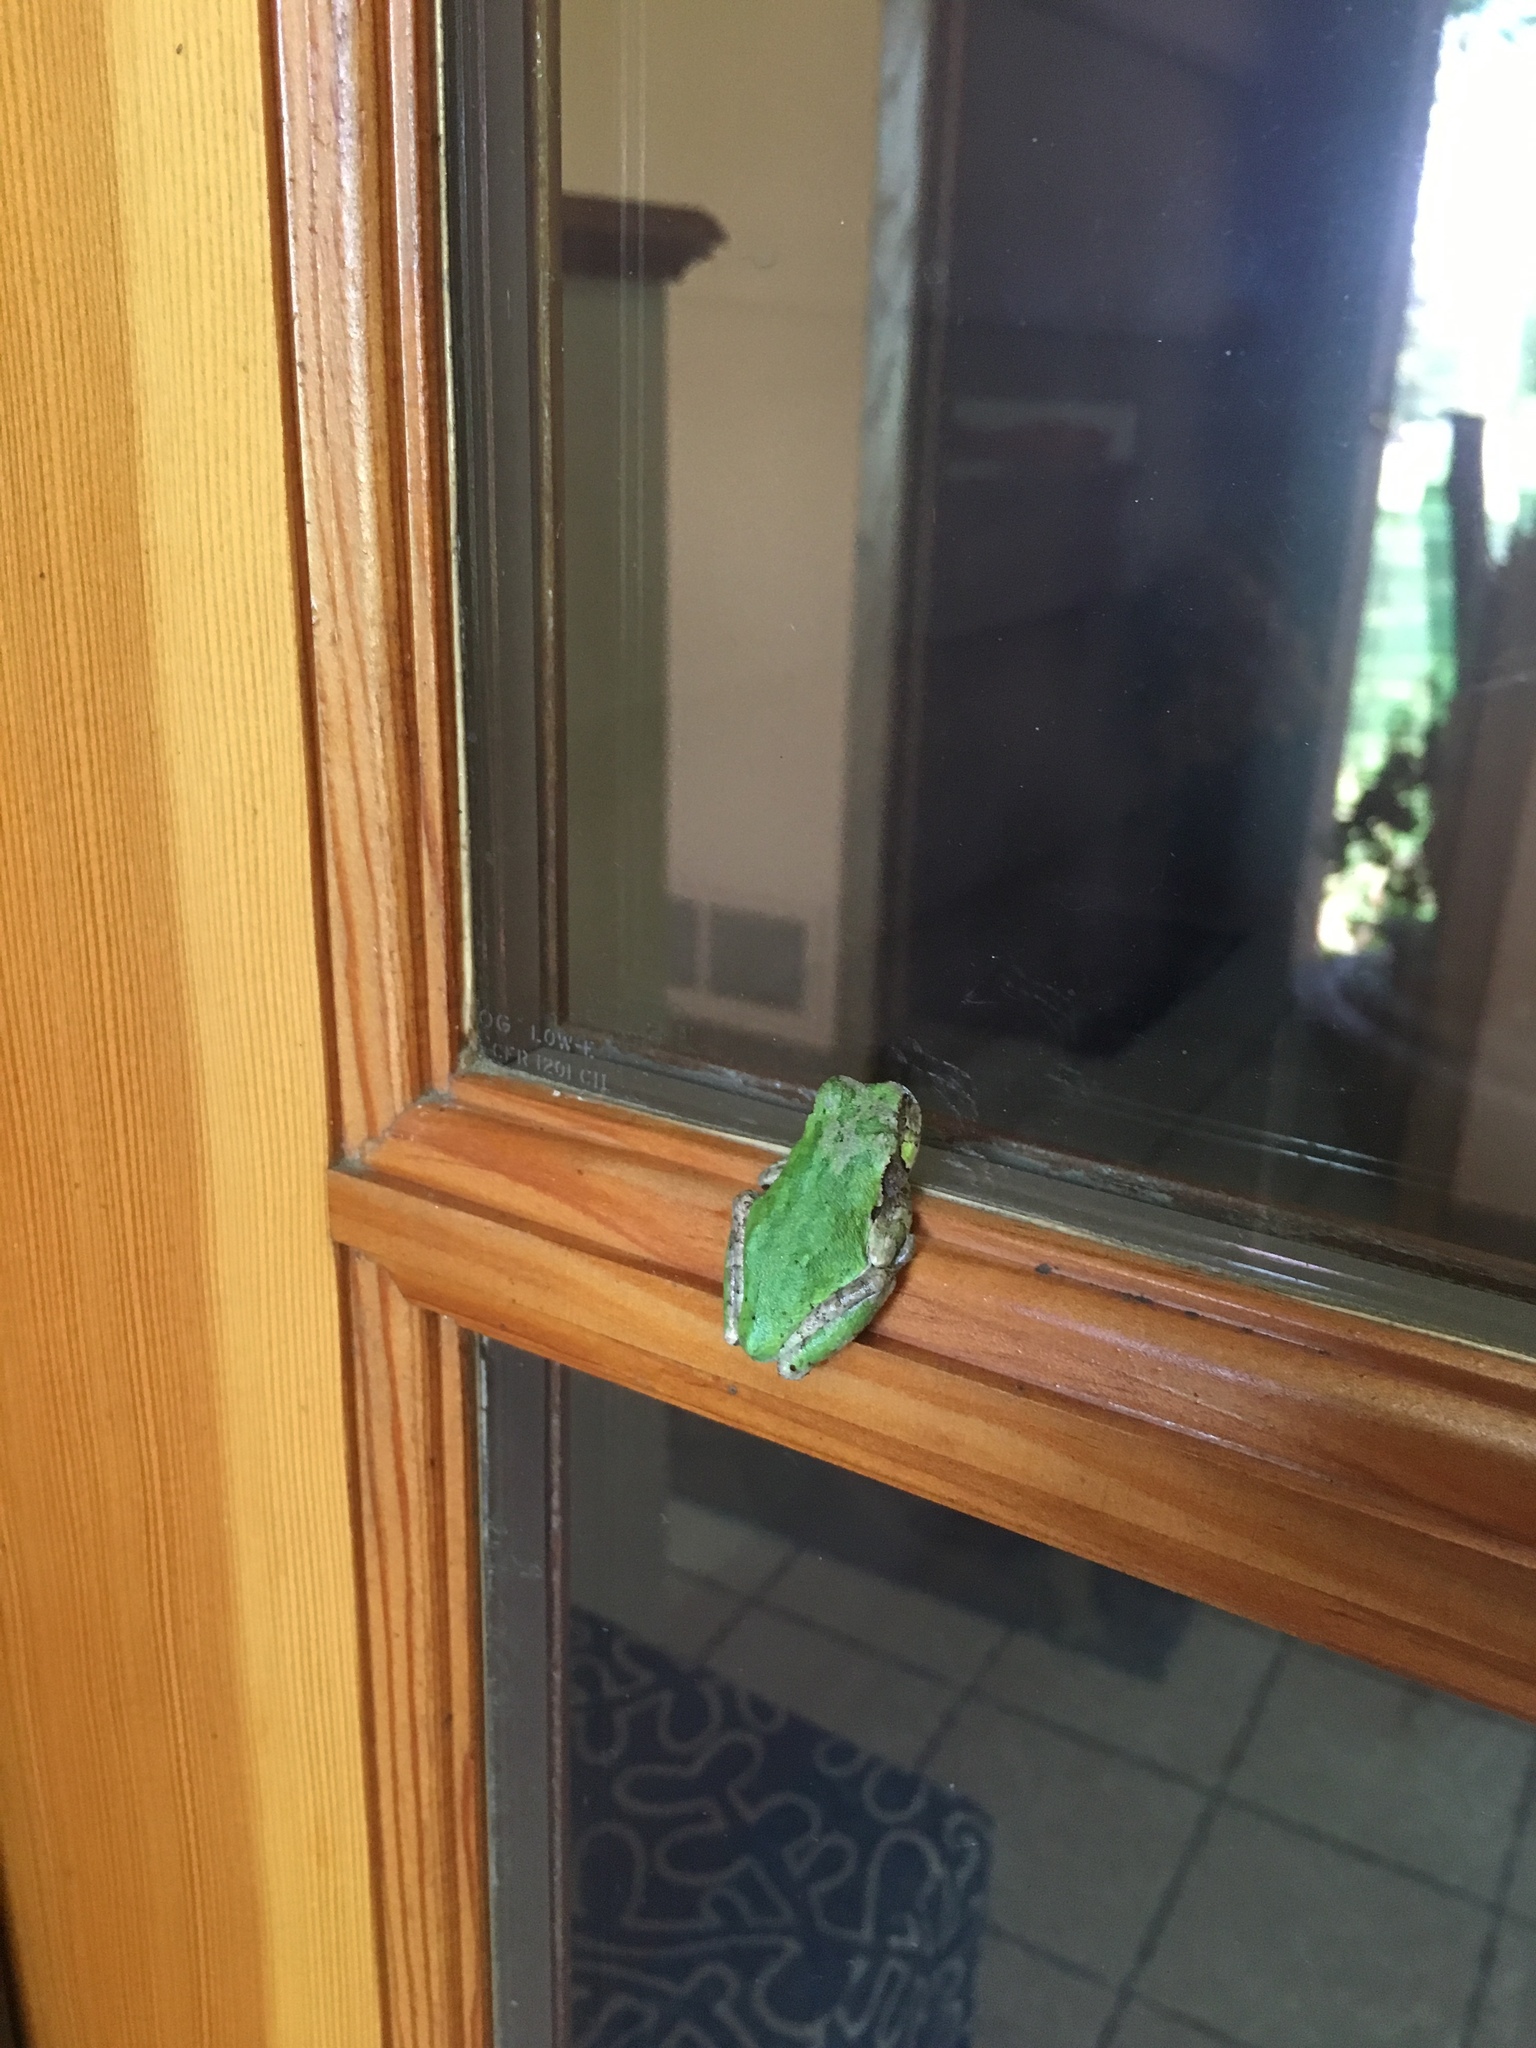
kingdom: Animalia
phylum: Chordata
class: Amphibia
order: Anura
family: Hylidae
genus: Hyla
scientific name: Hyla
